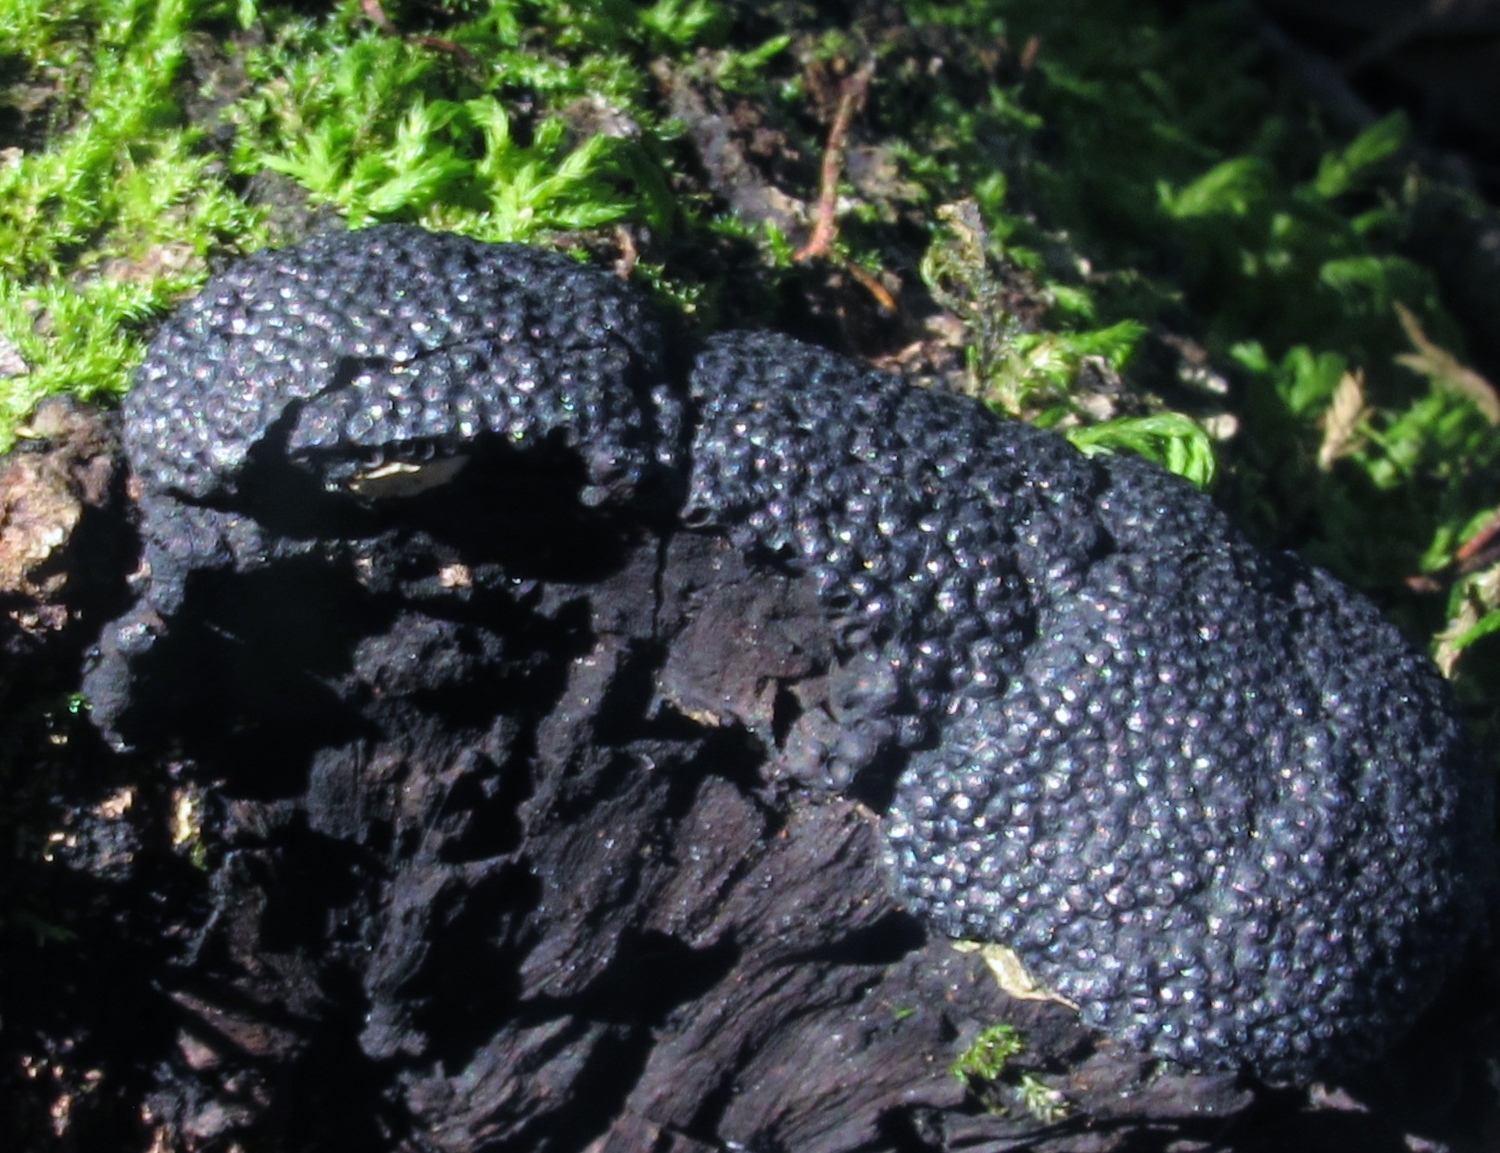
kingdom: Fungi
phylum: Ascomycota
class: Sordariomycetes
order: Xylariales
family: Hypoxylaceae
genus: Annulohypoxylon
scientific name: Annulohypoxylon thouarsianum
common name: Cramp balls
